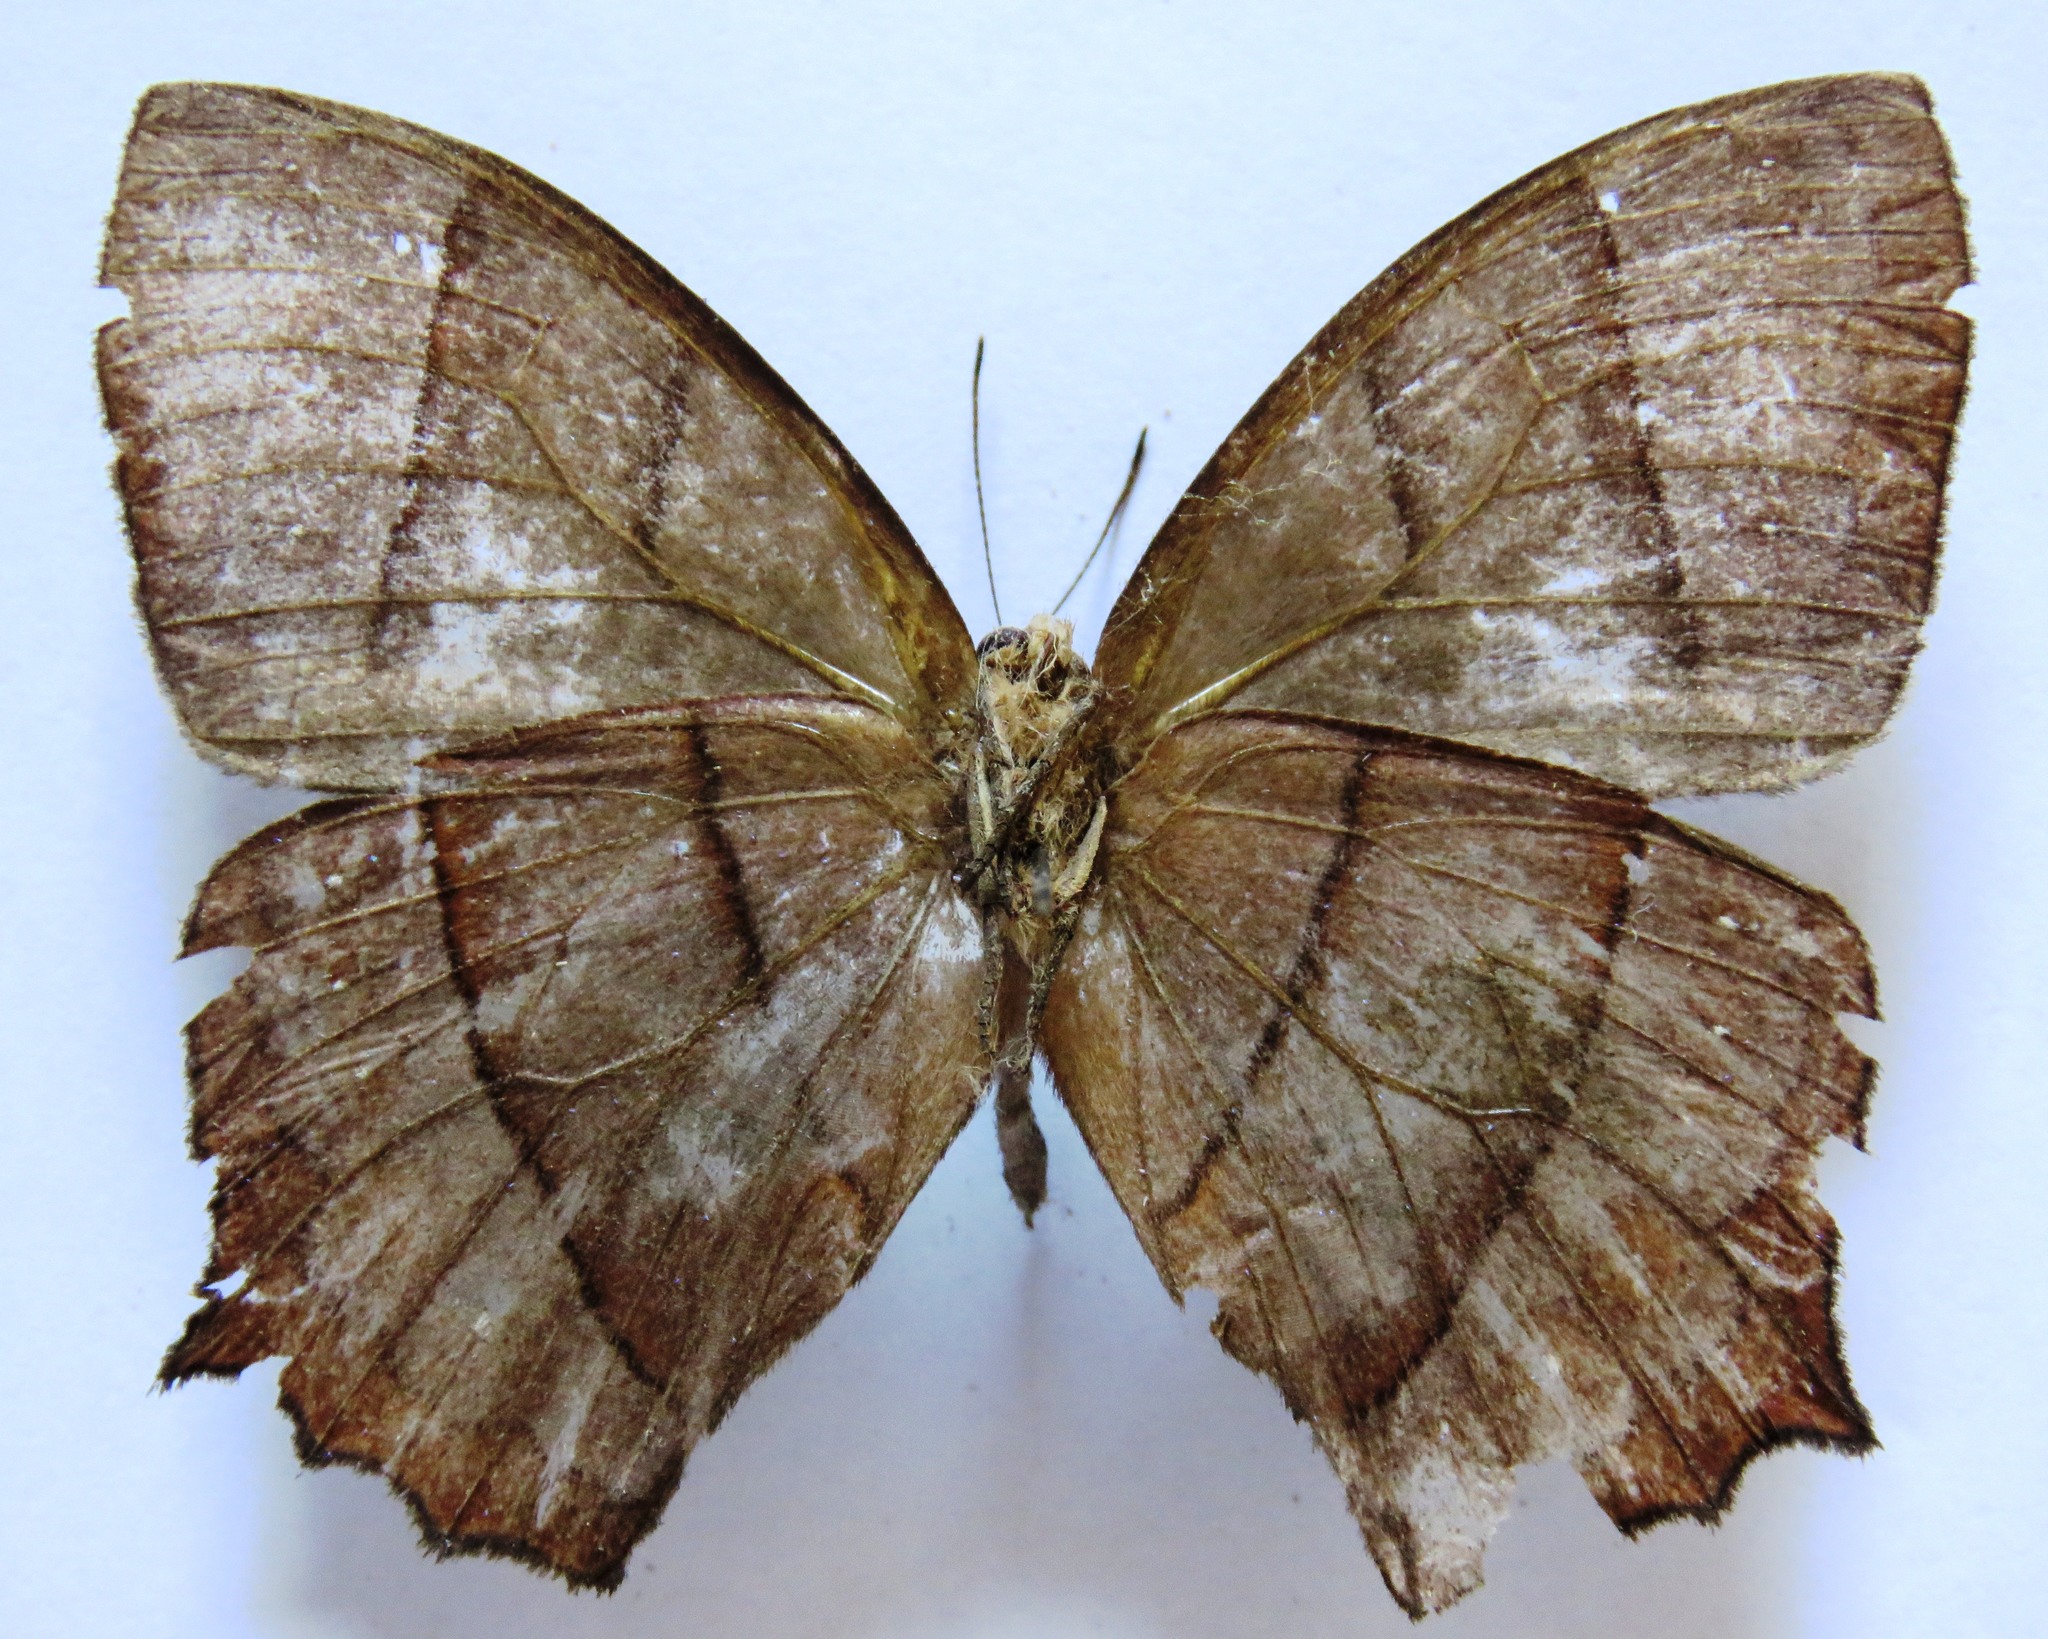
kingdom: Animalia
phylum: Arthropoda
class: Insecta
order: Lepidoptera
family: Nymphalidae
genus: Taygetis
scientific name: Taygetis virgilia
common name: Stub-tailed satyr
